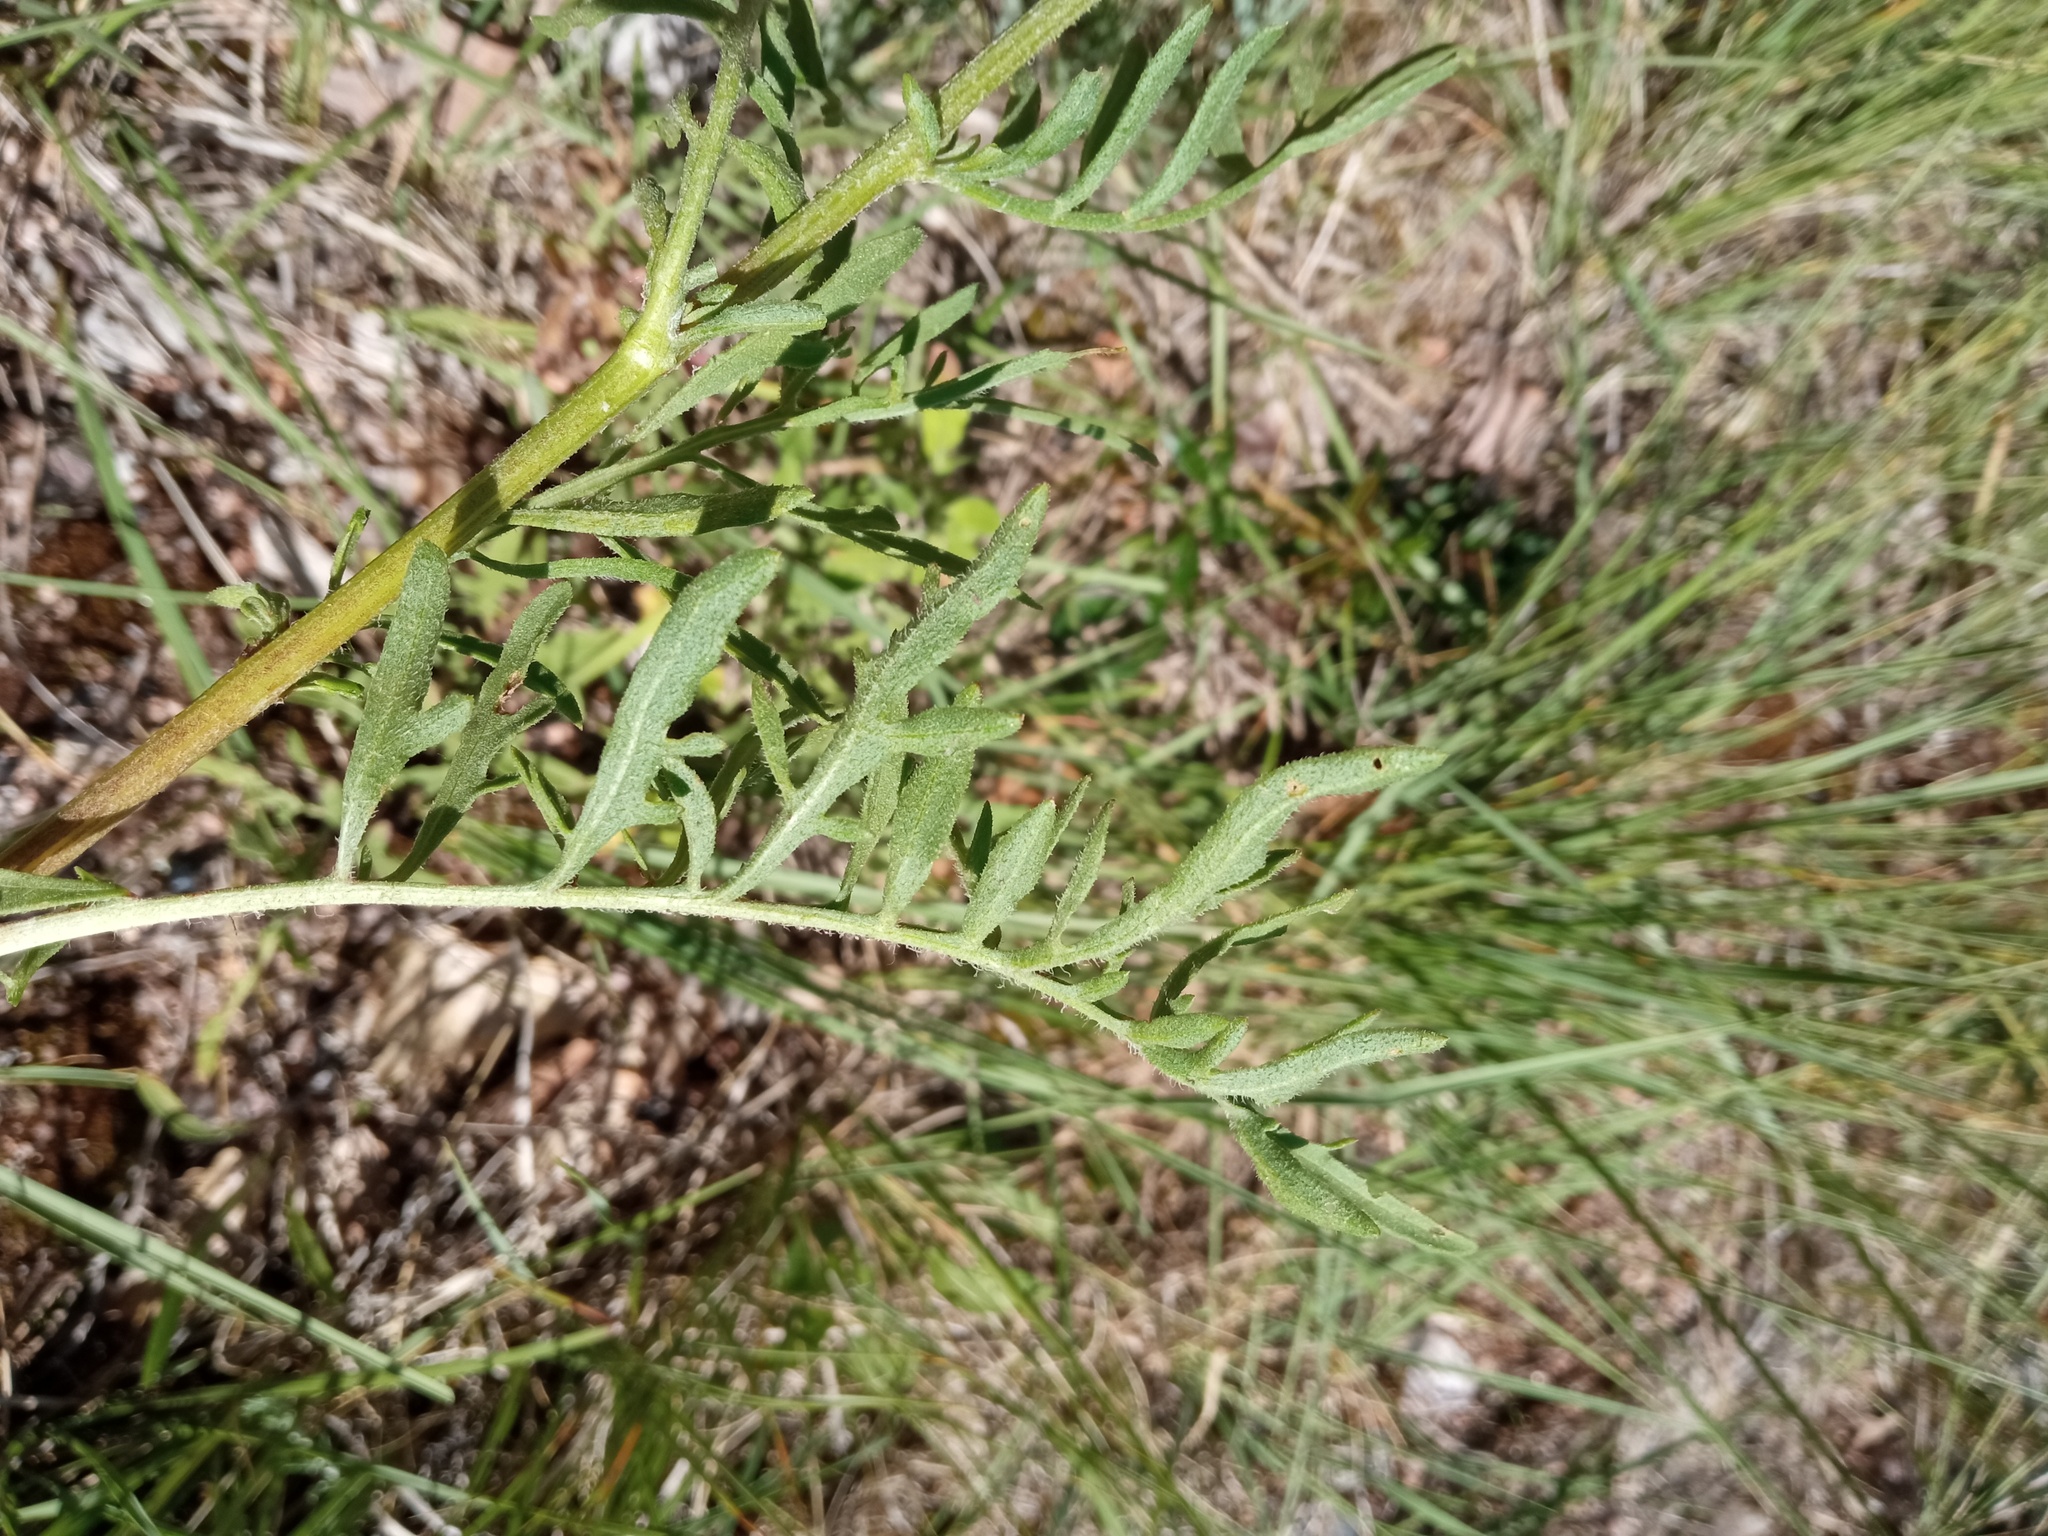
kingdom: Plantae
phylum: Tracheophyta
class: Magnoliopsida
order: Asterales
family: Asteraceae
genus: Centaurea
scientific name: Centaurea collina
